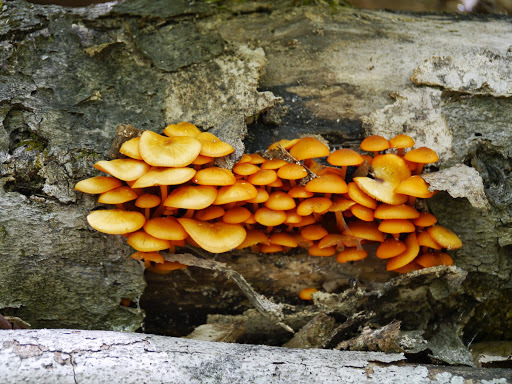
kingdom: Fungi
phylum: Basidiomycota
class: Agaricomycetes
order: Agaricales
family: Mycenaceae
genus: Mycena
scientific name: Mycena leaiana
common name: Orange mycena
